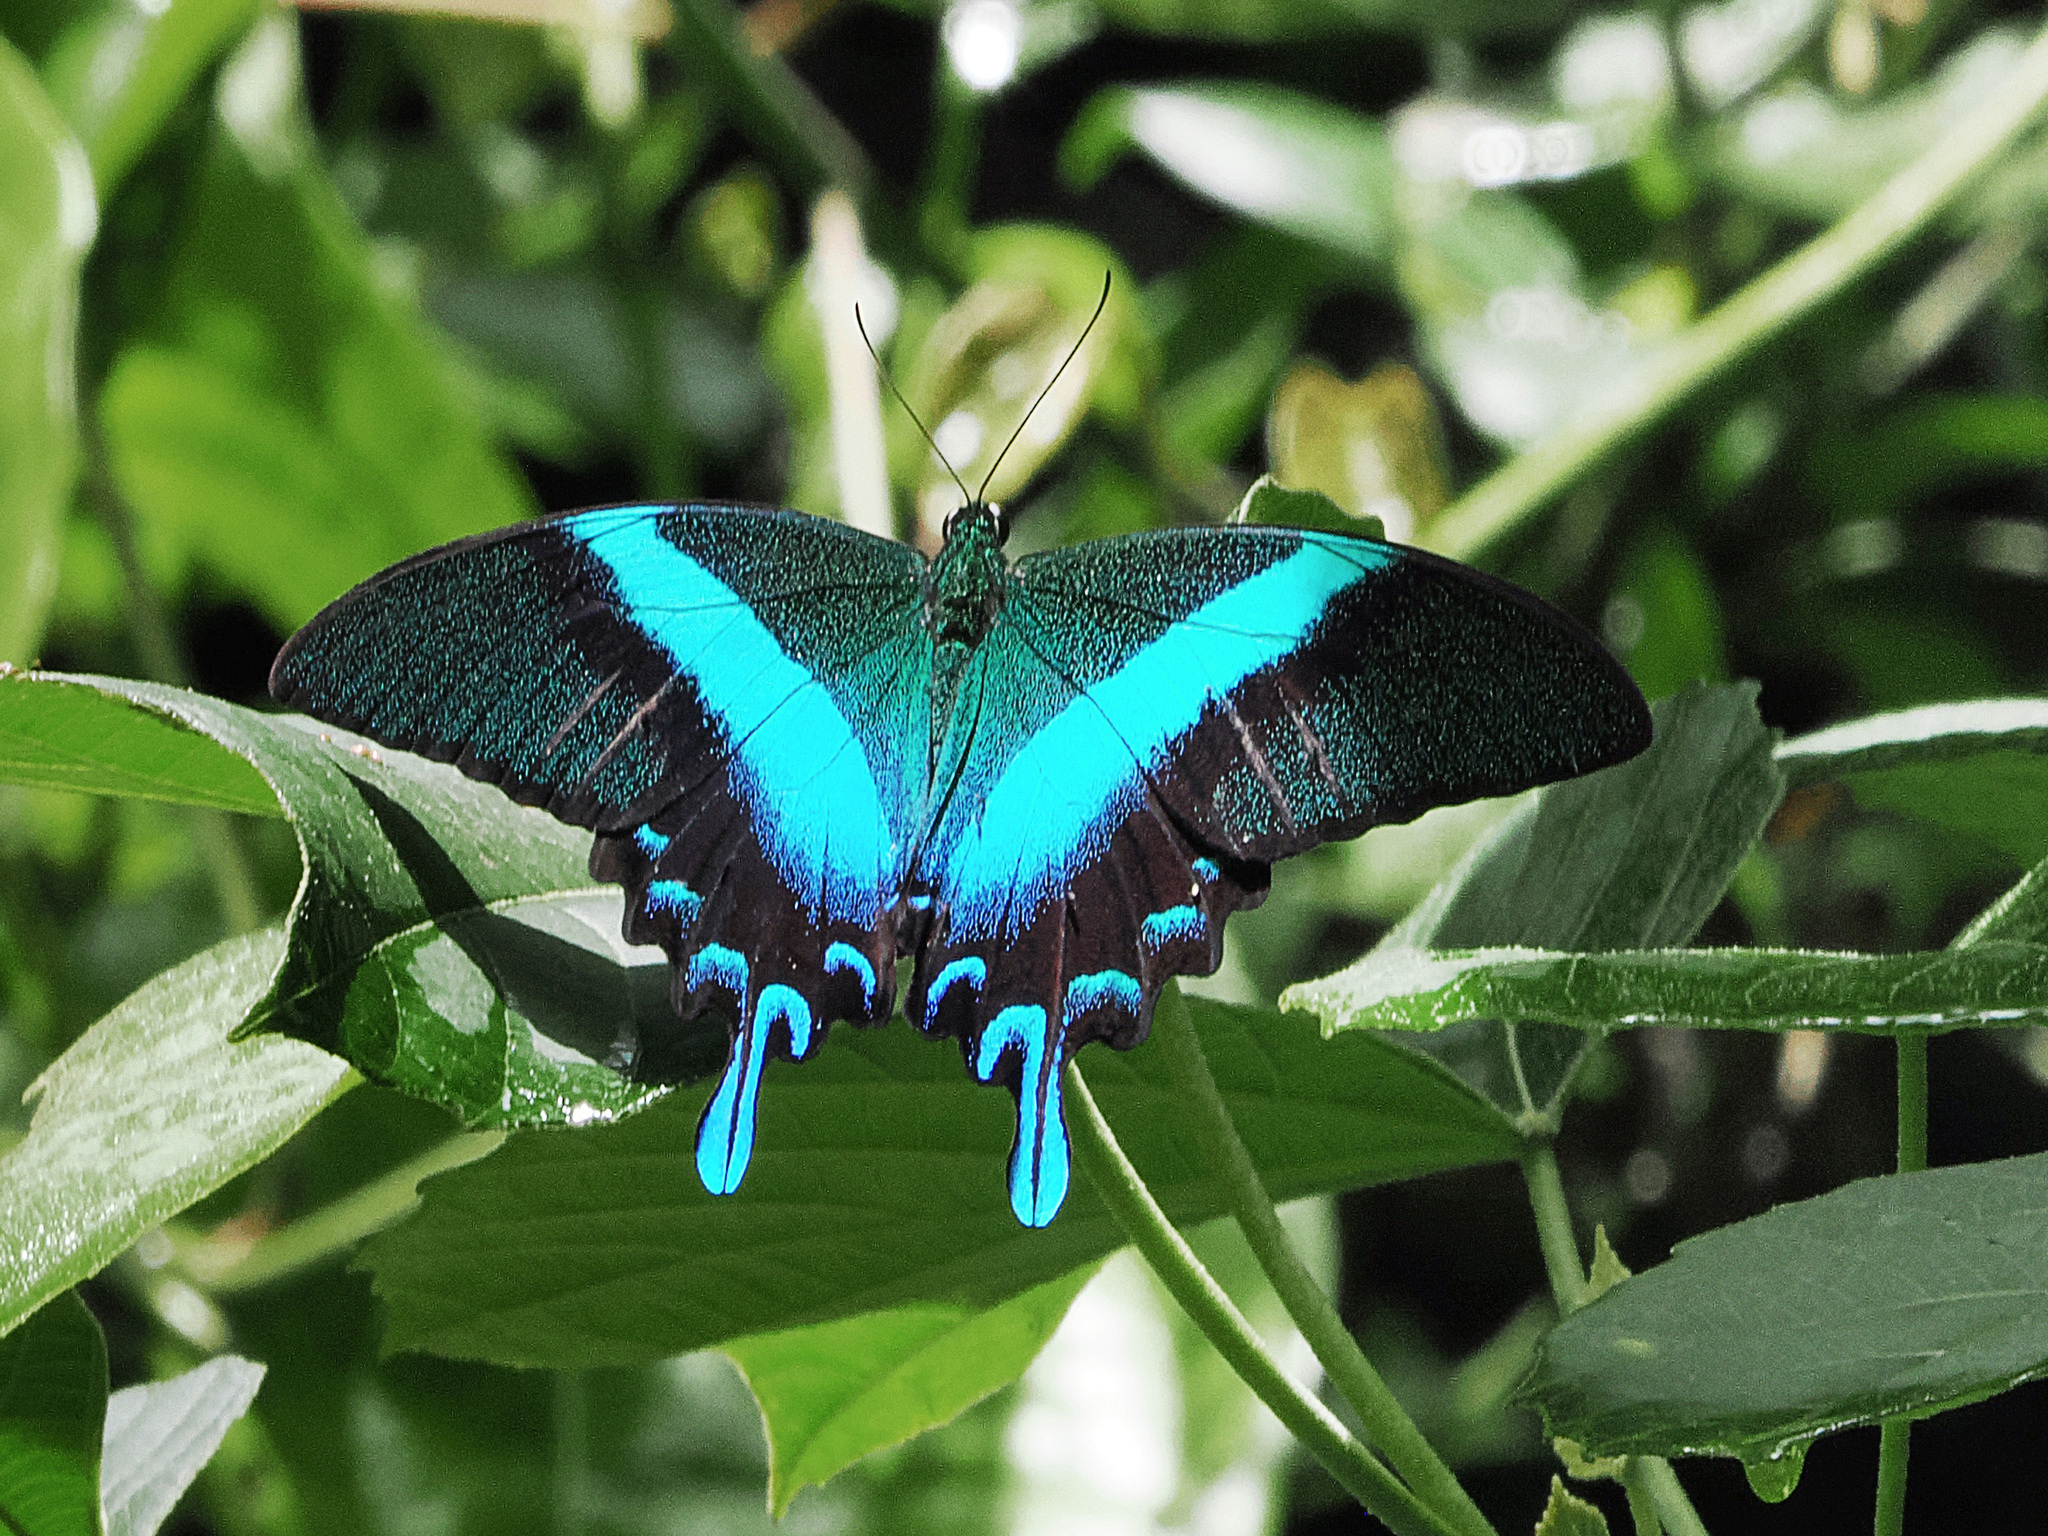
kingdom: Animalia
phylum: Arthropoda
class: Insecta
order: Lepidoptera
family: Papilionidae
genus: Papilio
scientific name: Papilio blumei
